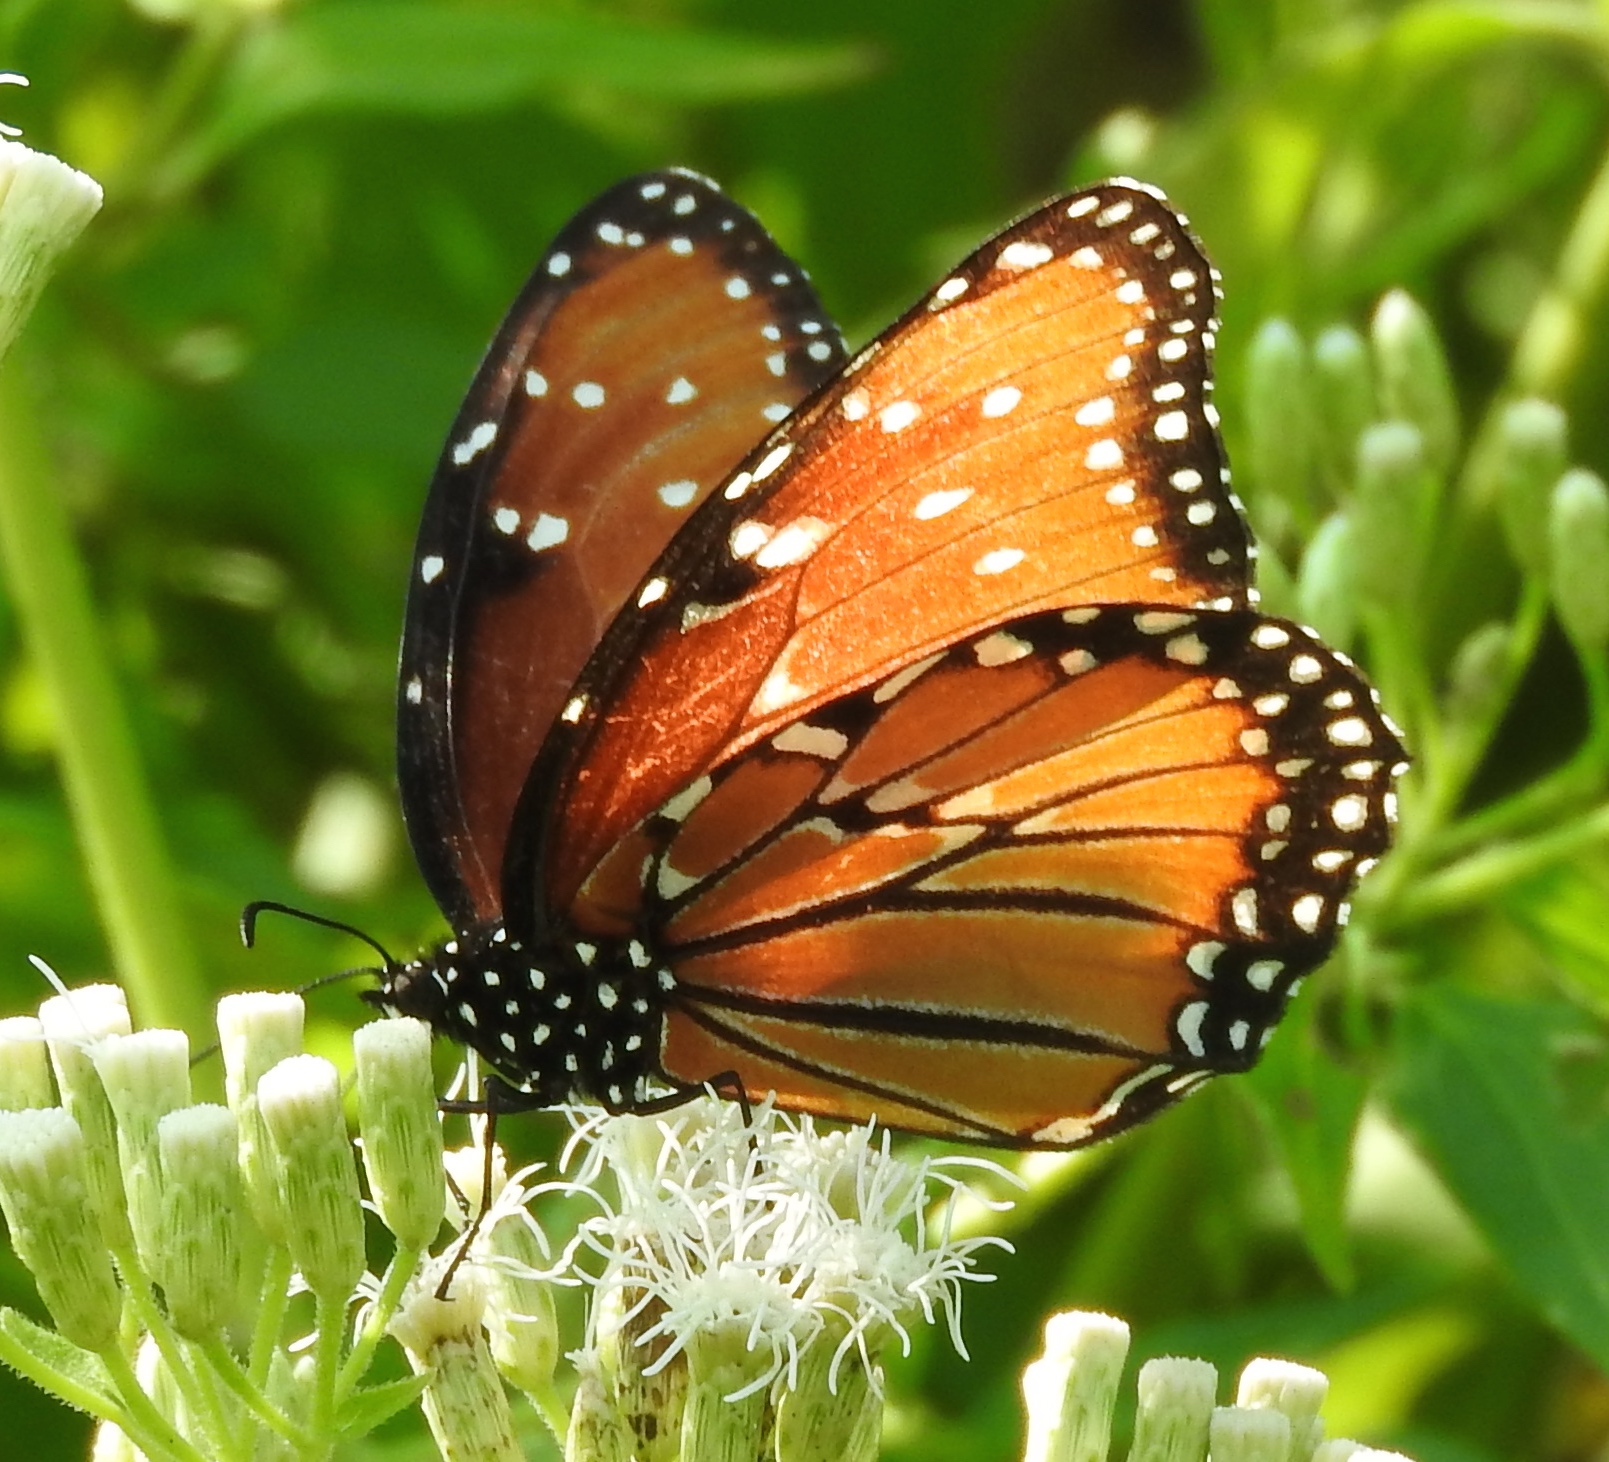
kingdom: Animalia
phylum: Arthropoda
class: Insecta
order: Lepidoptera
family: Nymphalidae
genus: Danaus
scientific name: Danaus gilippus
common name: Queen
